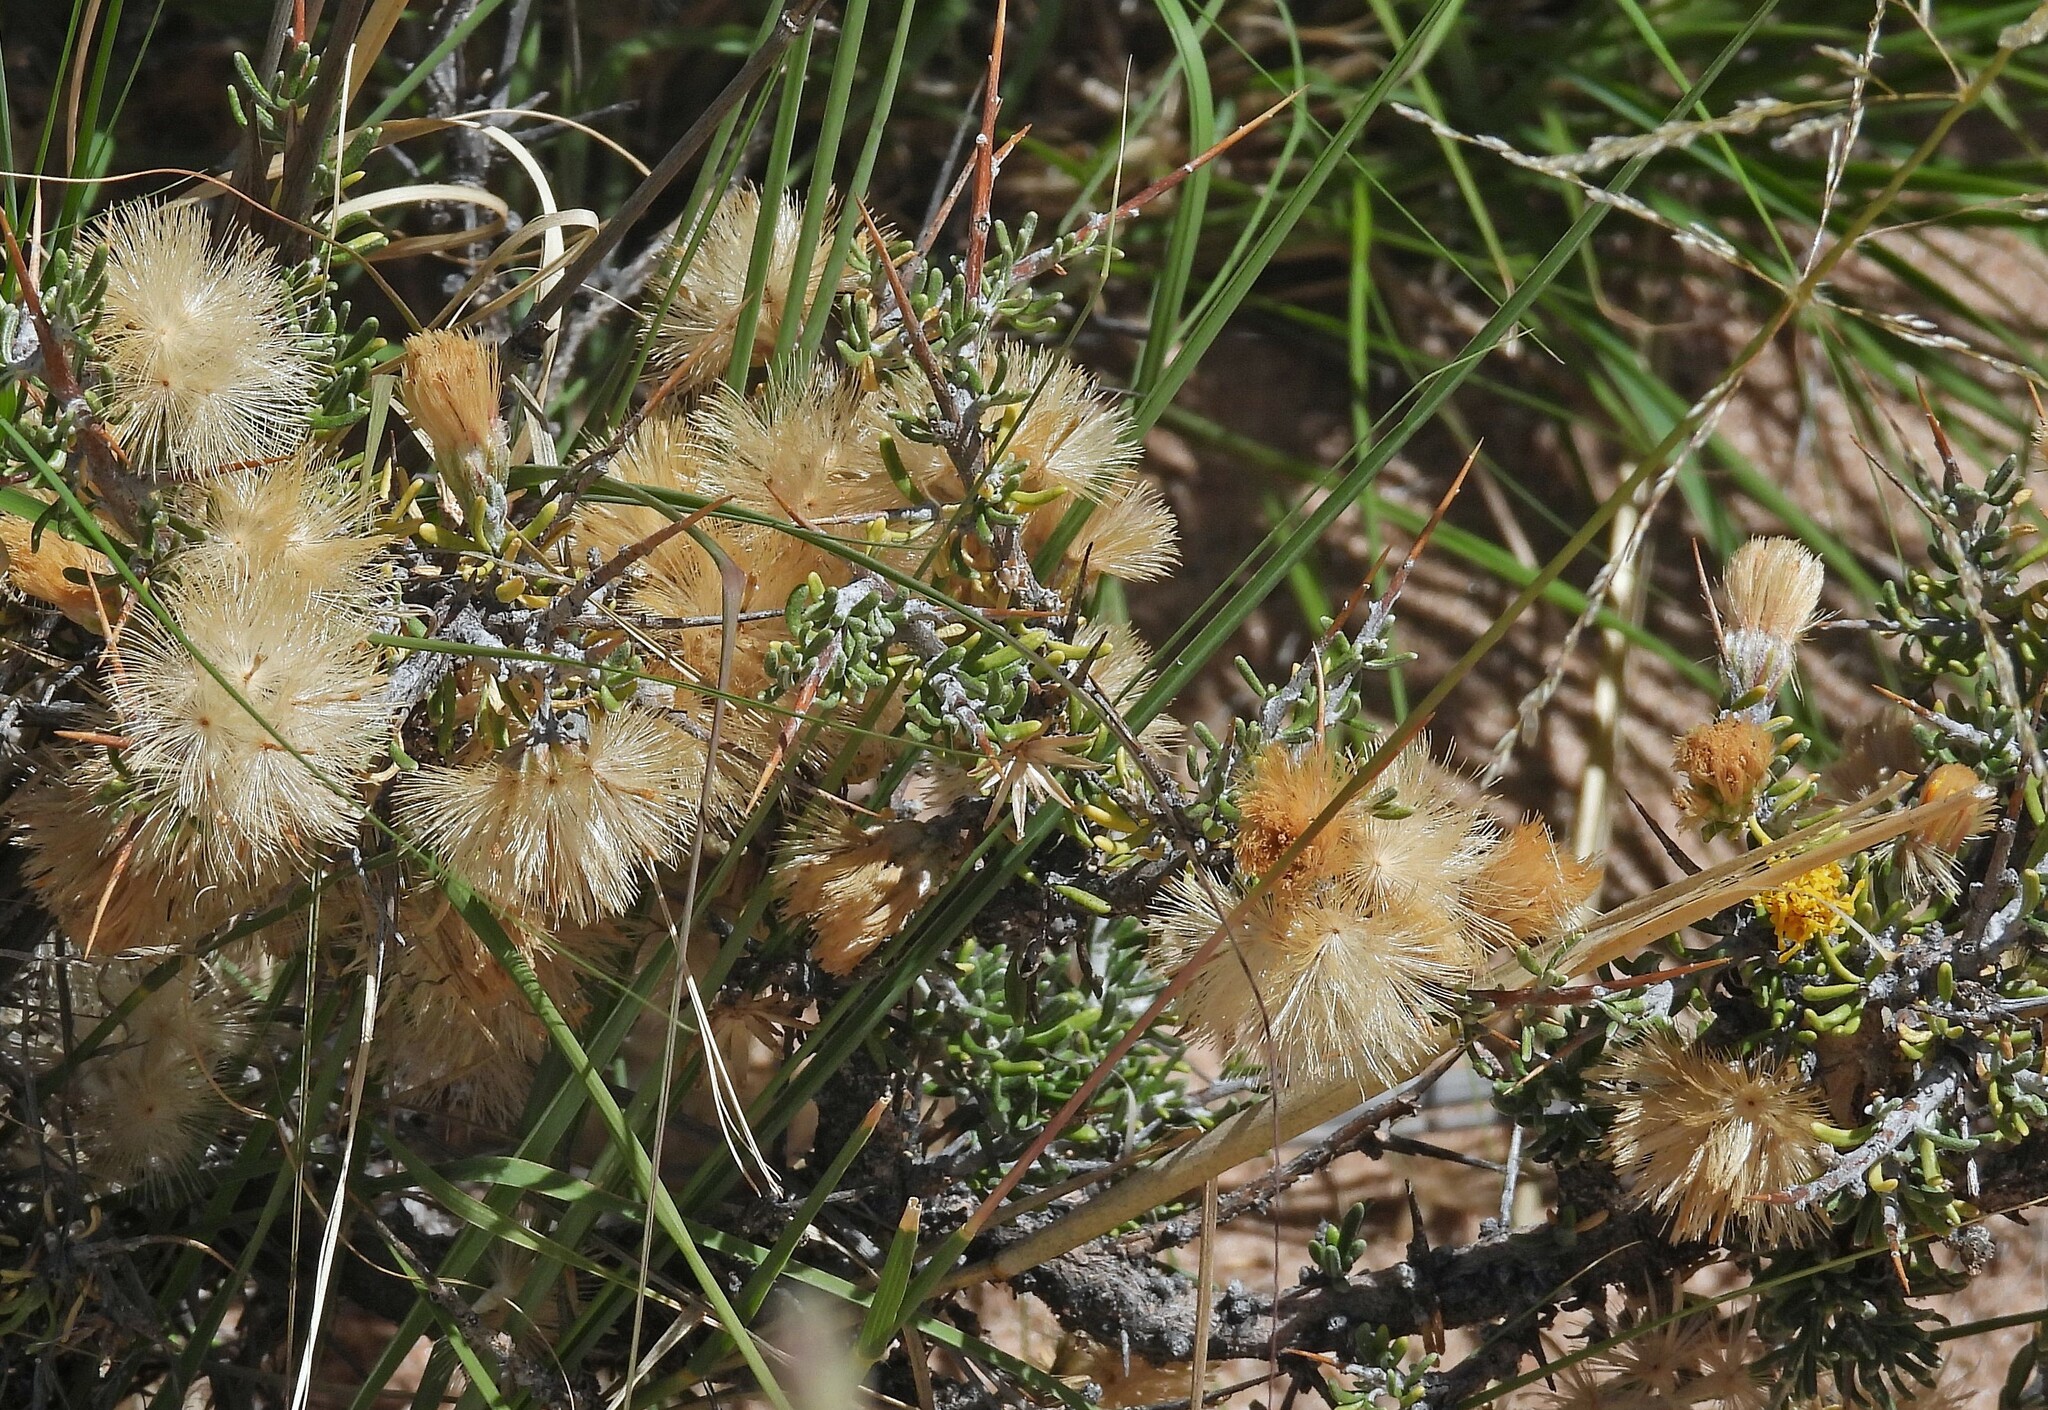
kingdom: Plantae
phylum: Tracheophyta
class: Magnoliopsida
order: Asterales
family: Asteraceae
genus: Nardophyllum
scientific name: Nardophyllum armatum
